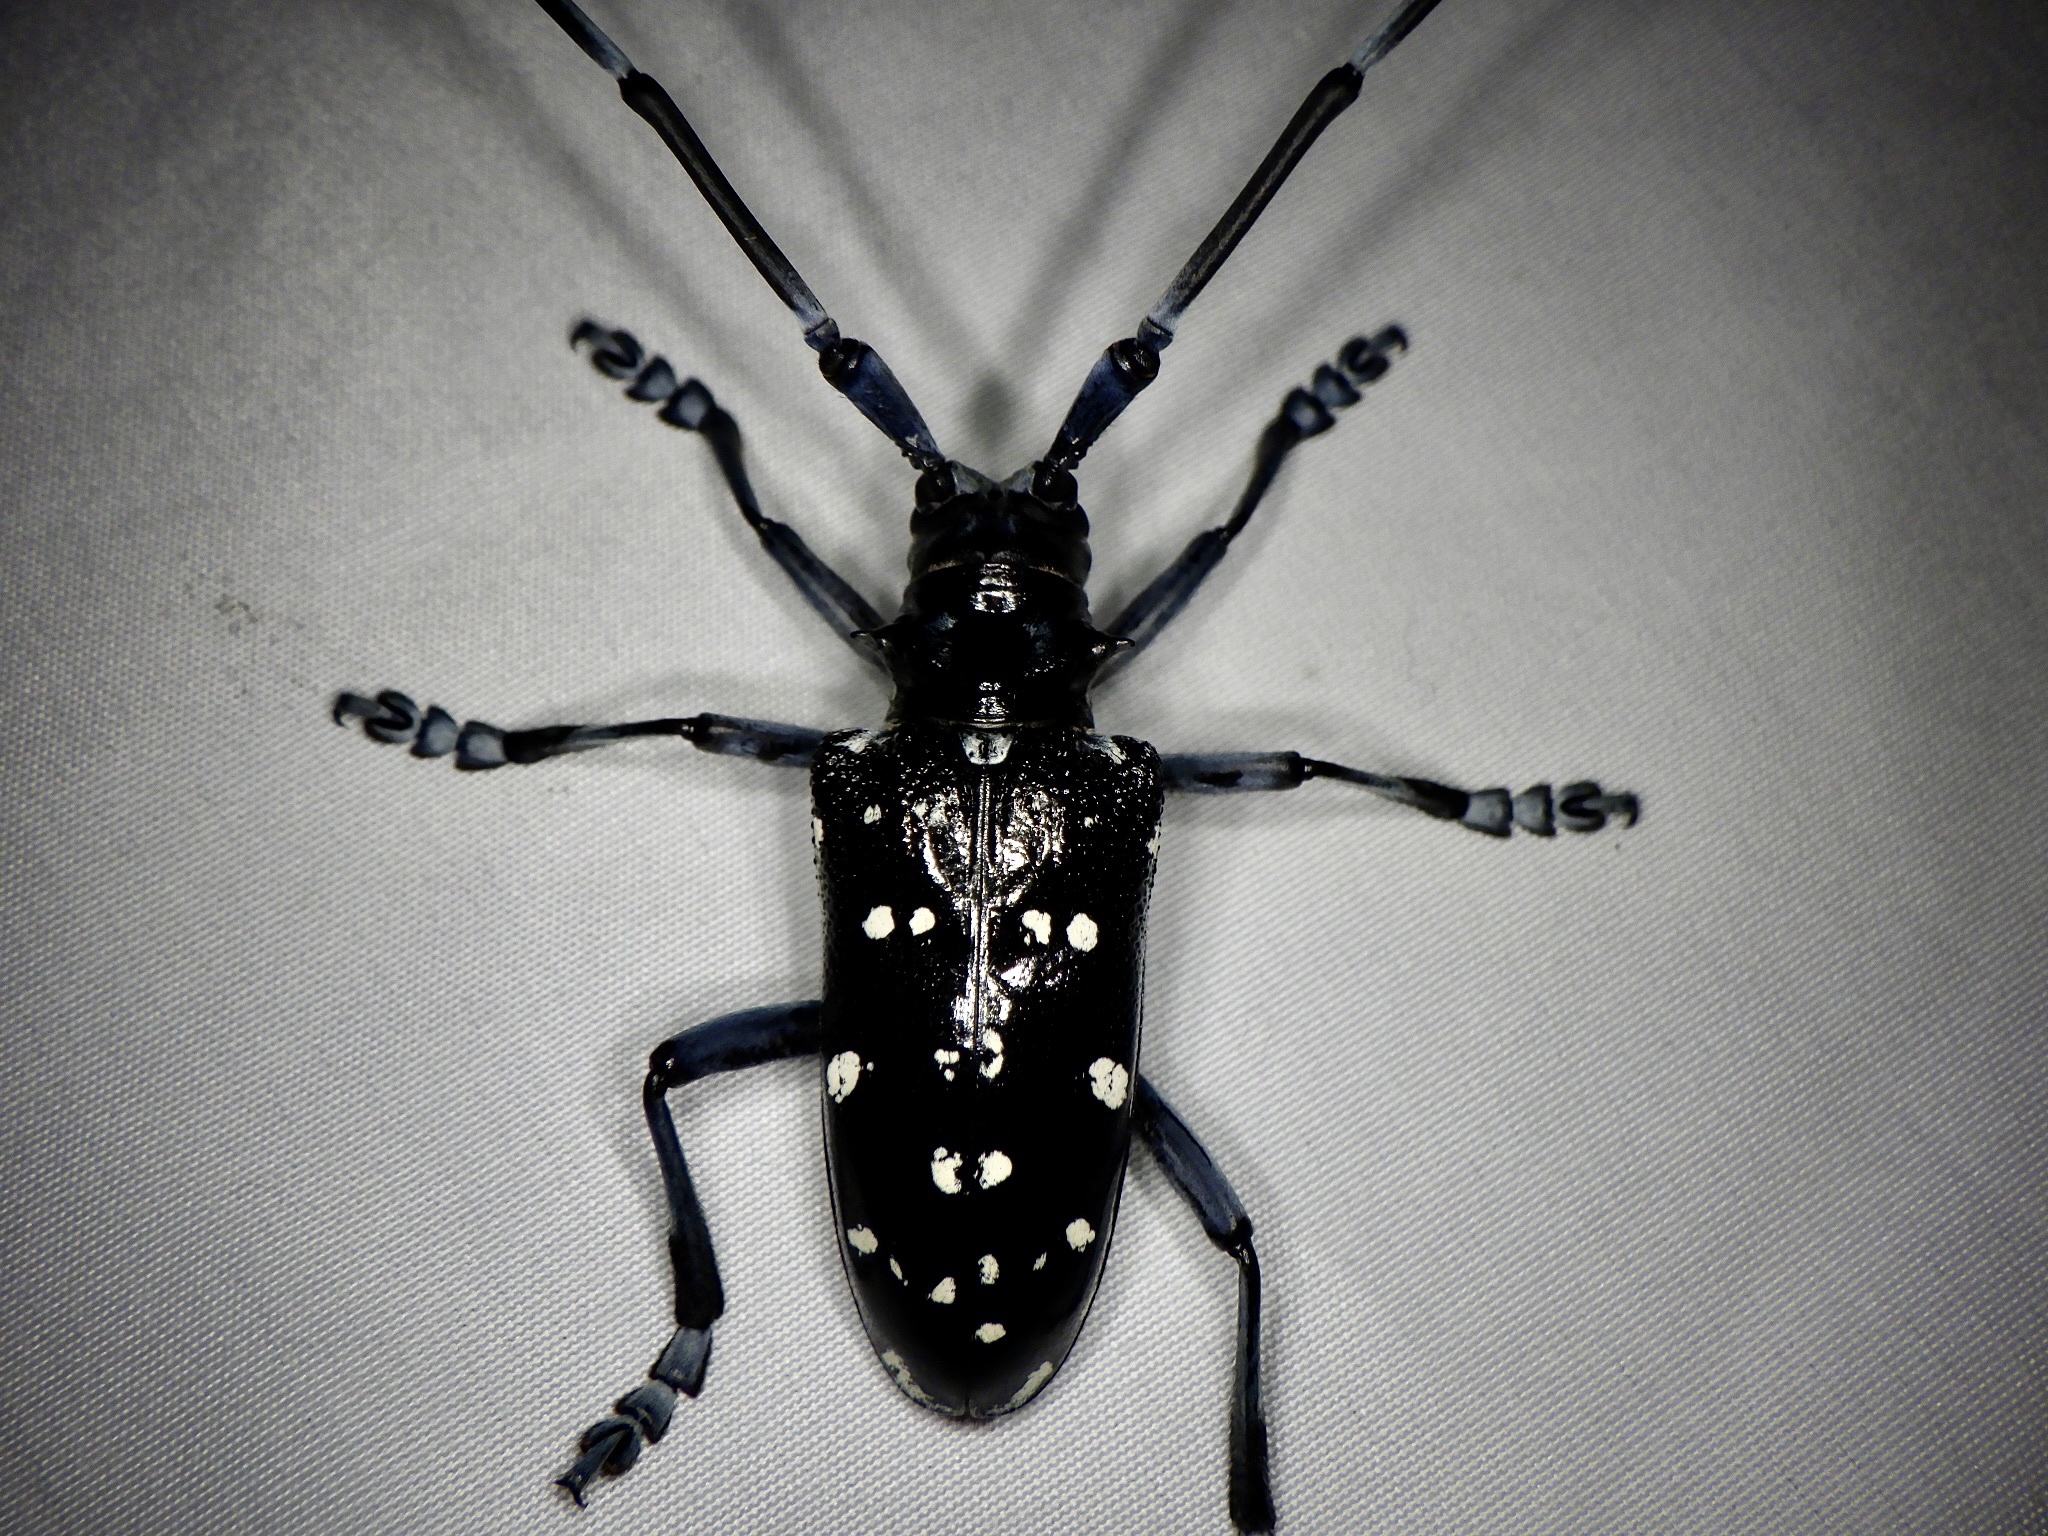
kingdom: Animalia
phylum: Arthropoda
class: Insecta
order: Coleoptera
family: Cerambycidae
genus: Anoplophora
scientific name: Anoplophora chinensis
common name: Citrus longhorned beetle
